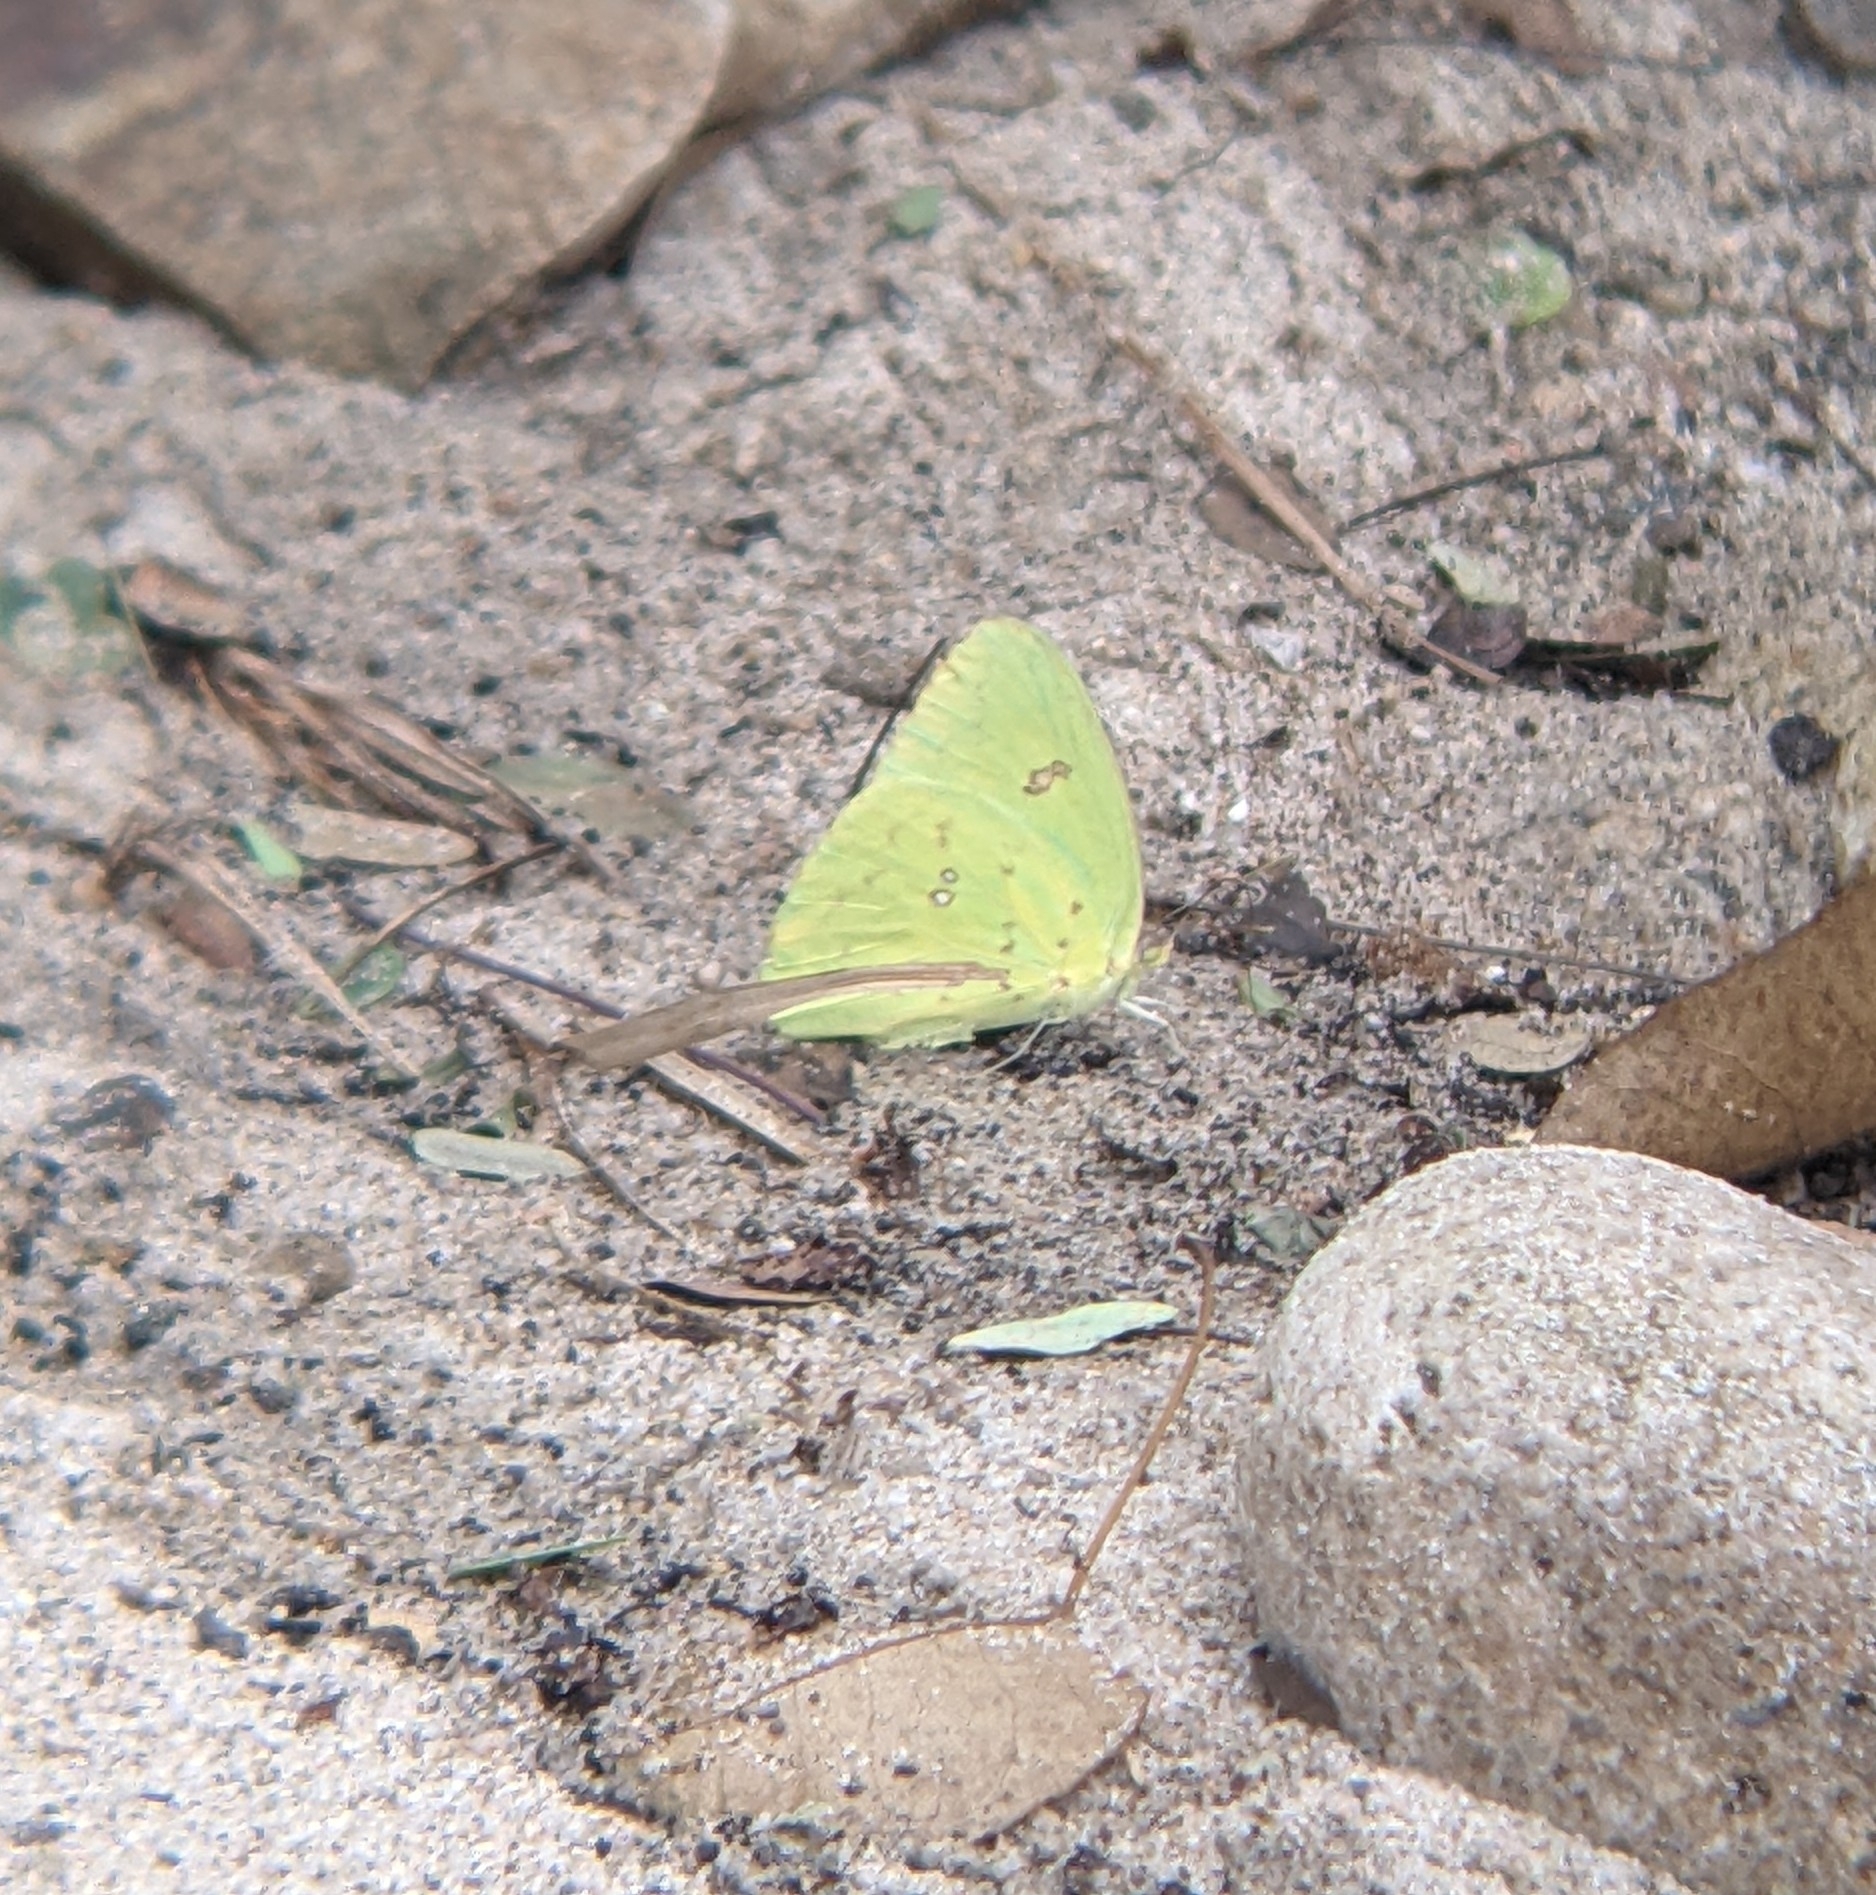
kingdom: Animalia
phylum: Arthropoda
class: Insecta
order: Lepidoptera
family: Pieridae
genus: Phoebis
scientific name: Phoebis marcellina
